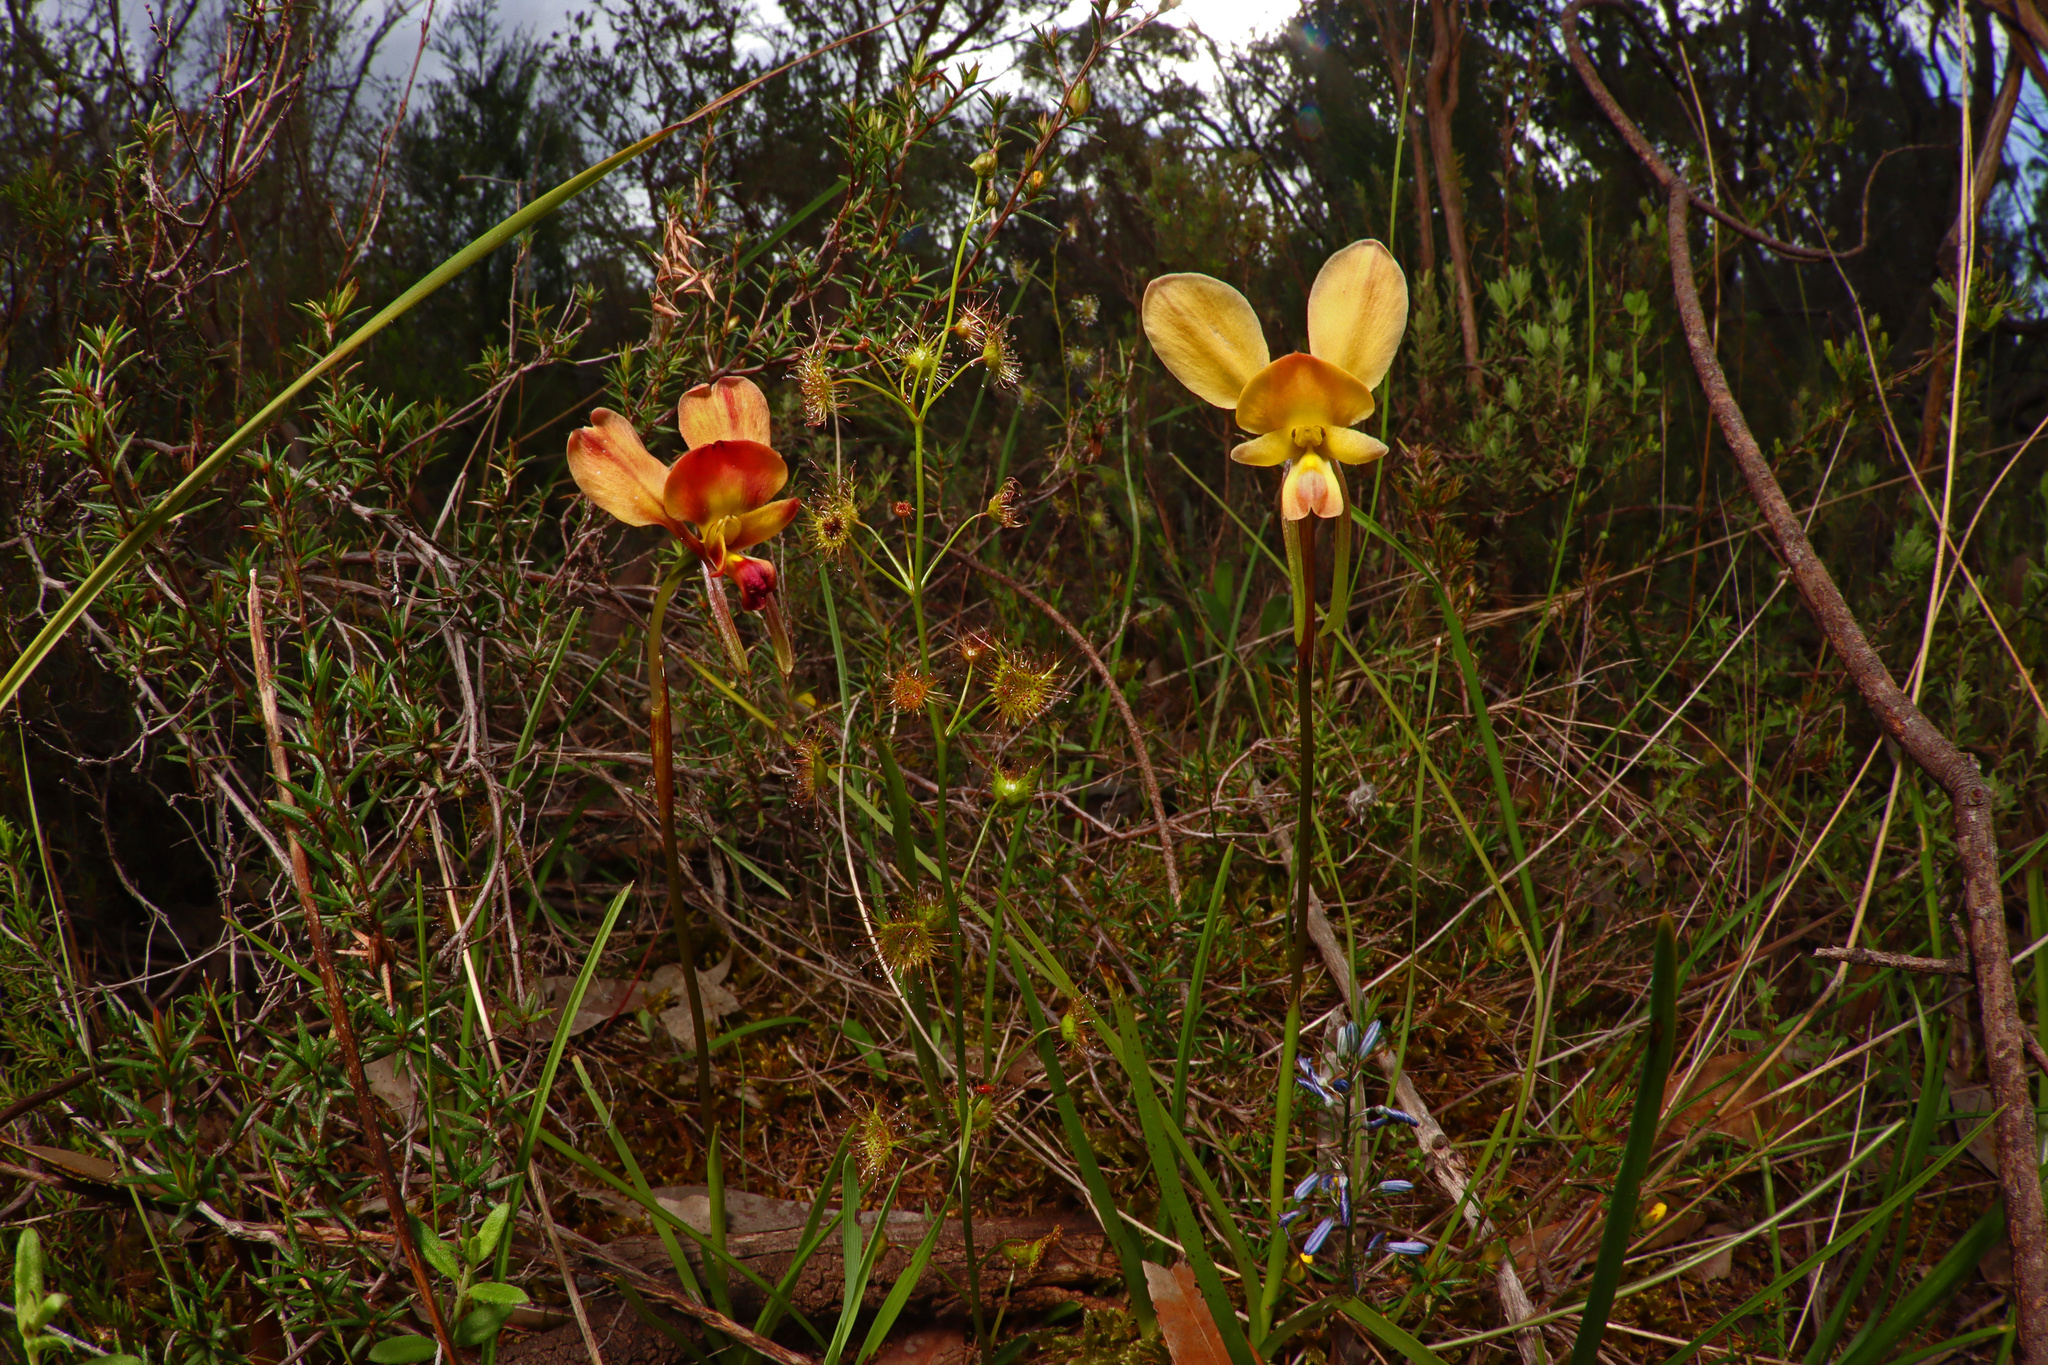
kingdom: Plantae
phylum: Tracheophyta
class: Liliopsida
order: Asparagales
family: Orchidaceae
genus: Diuris
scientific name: Diuris orientis
